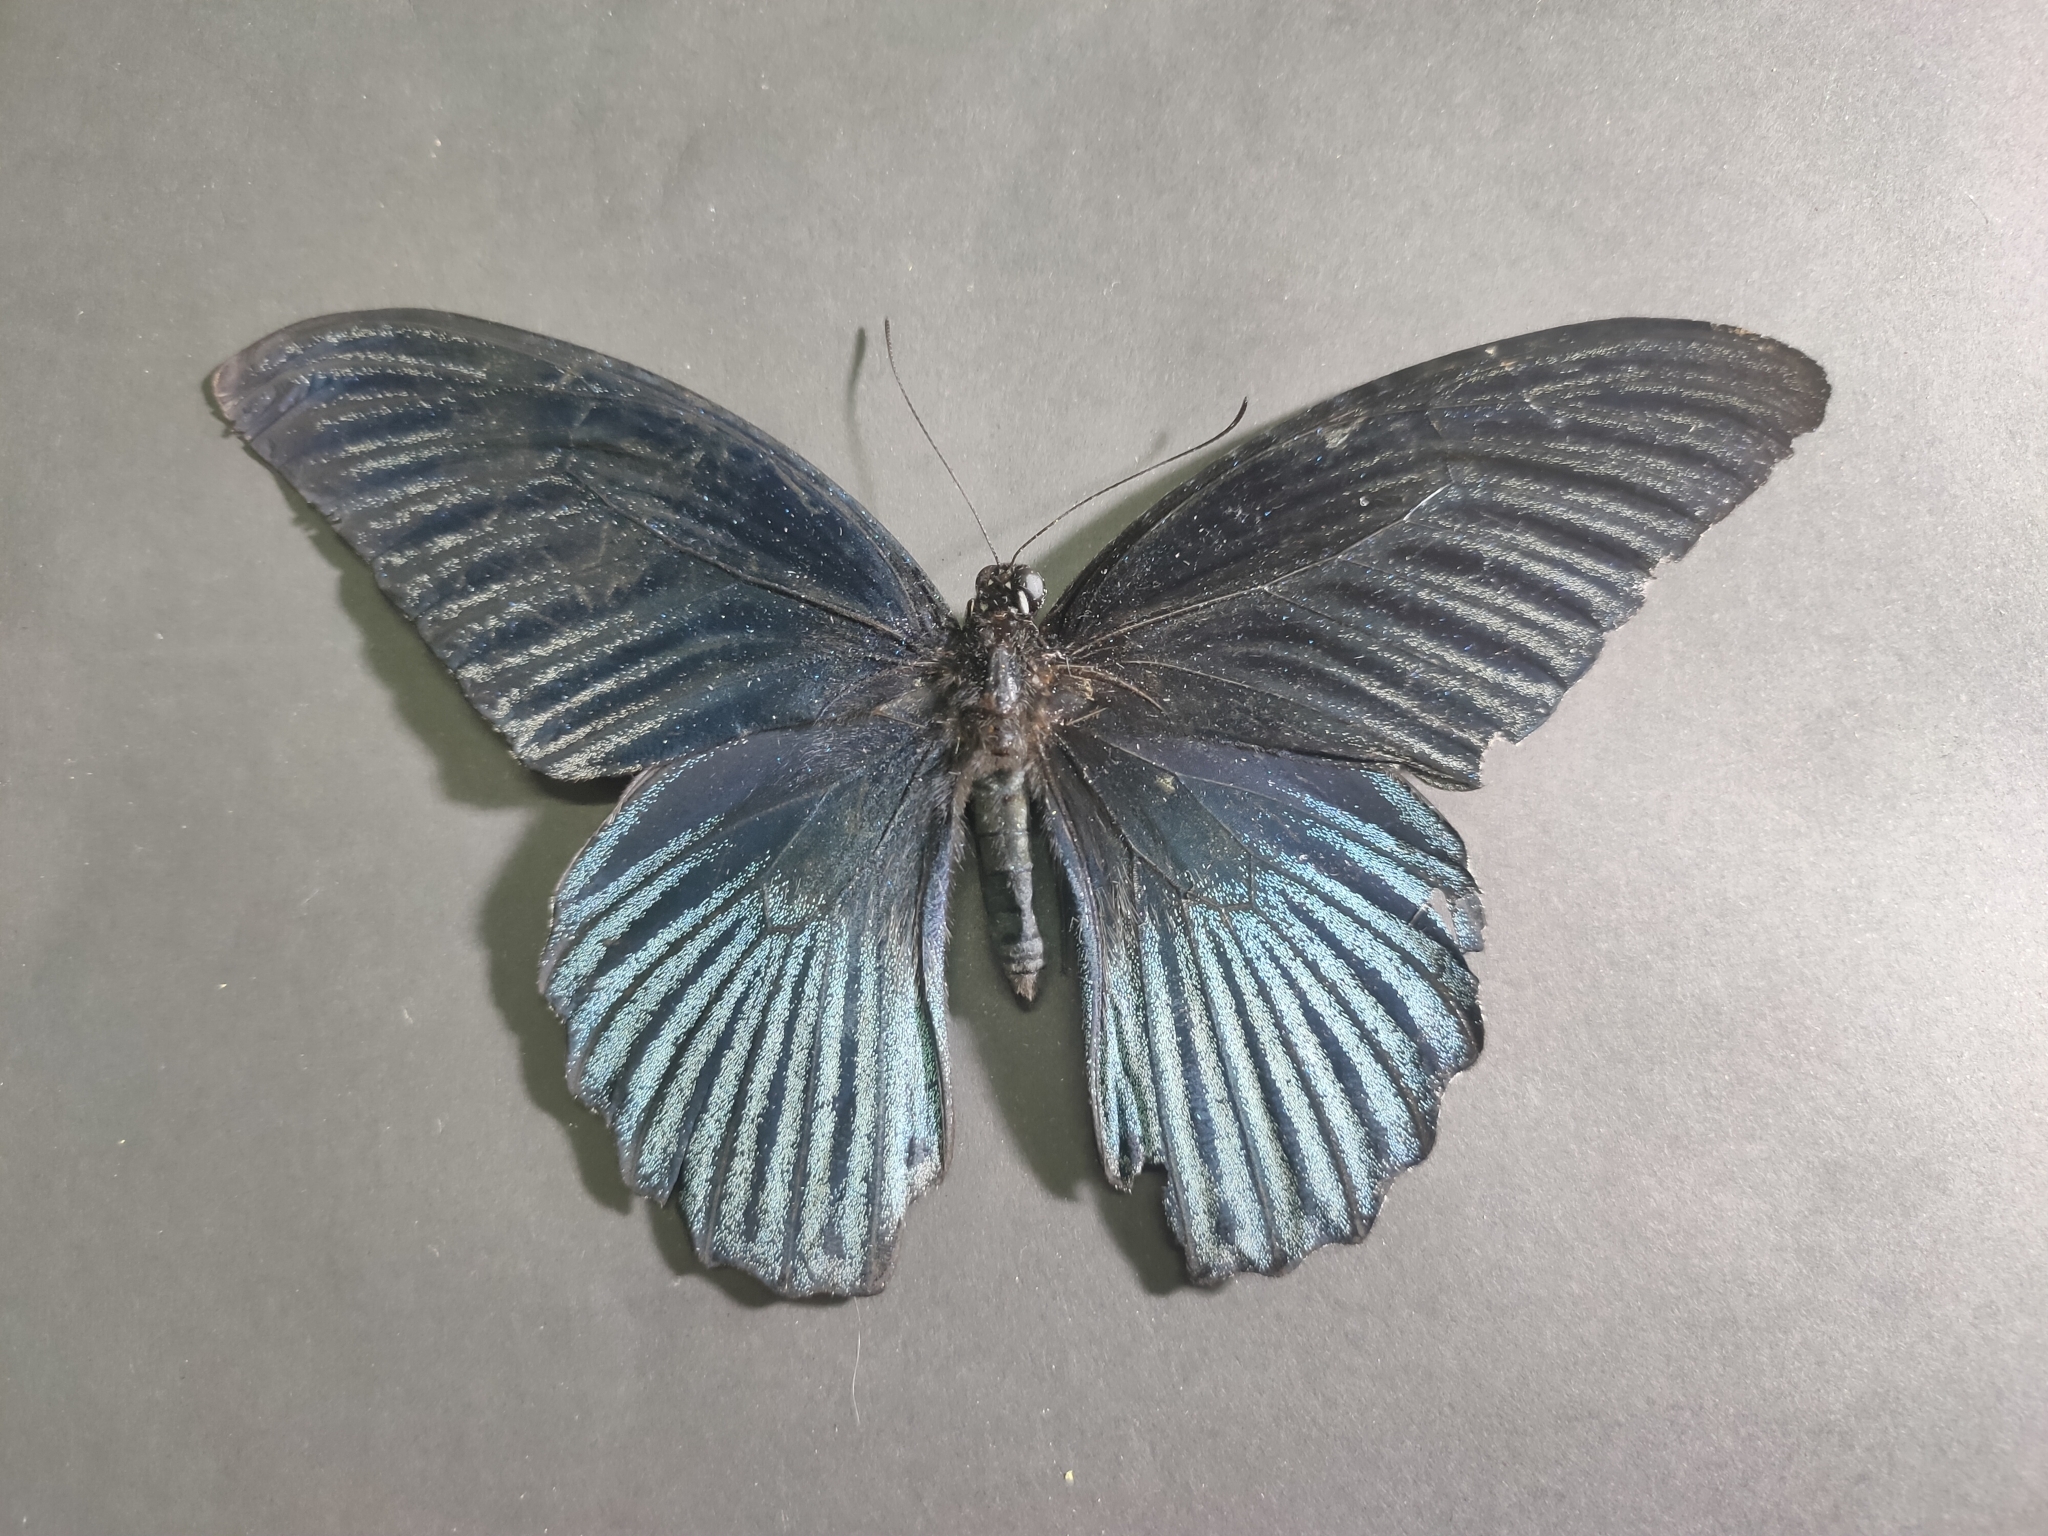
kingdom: Animalia
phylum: Arthropoda
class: Insecta
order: Lepidoptera
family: Papilionidae
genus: Papilio
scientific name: Papilio memnon
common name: Great mormon
